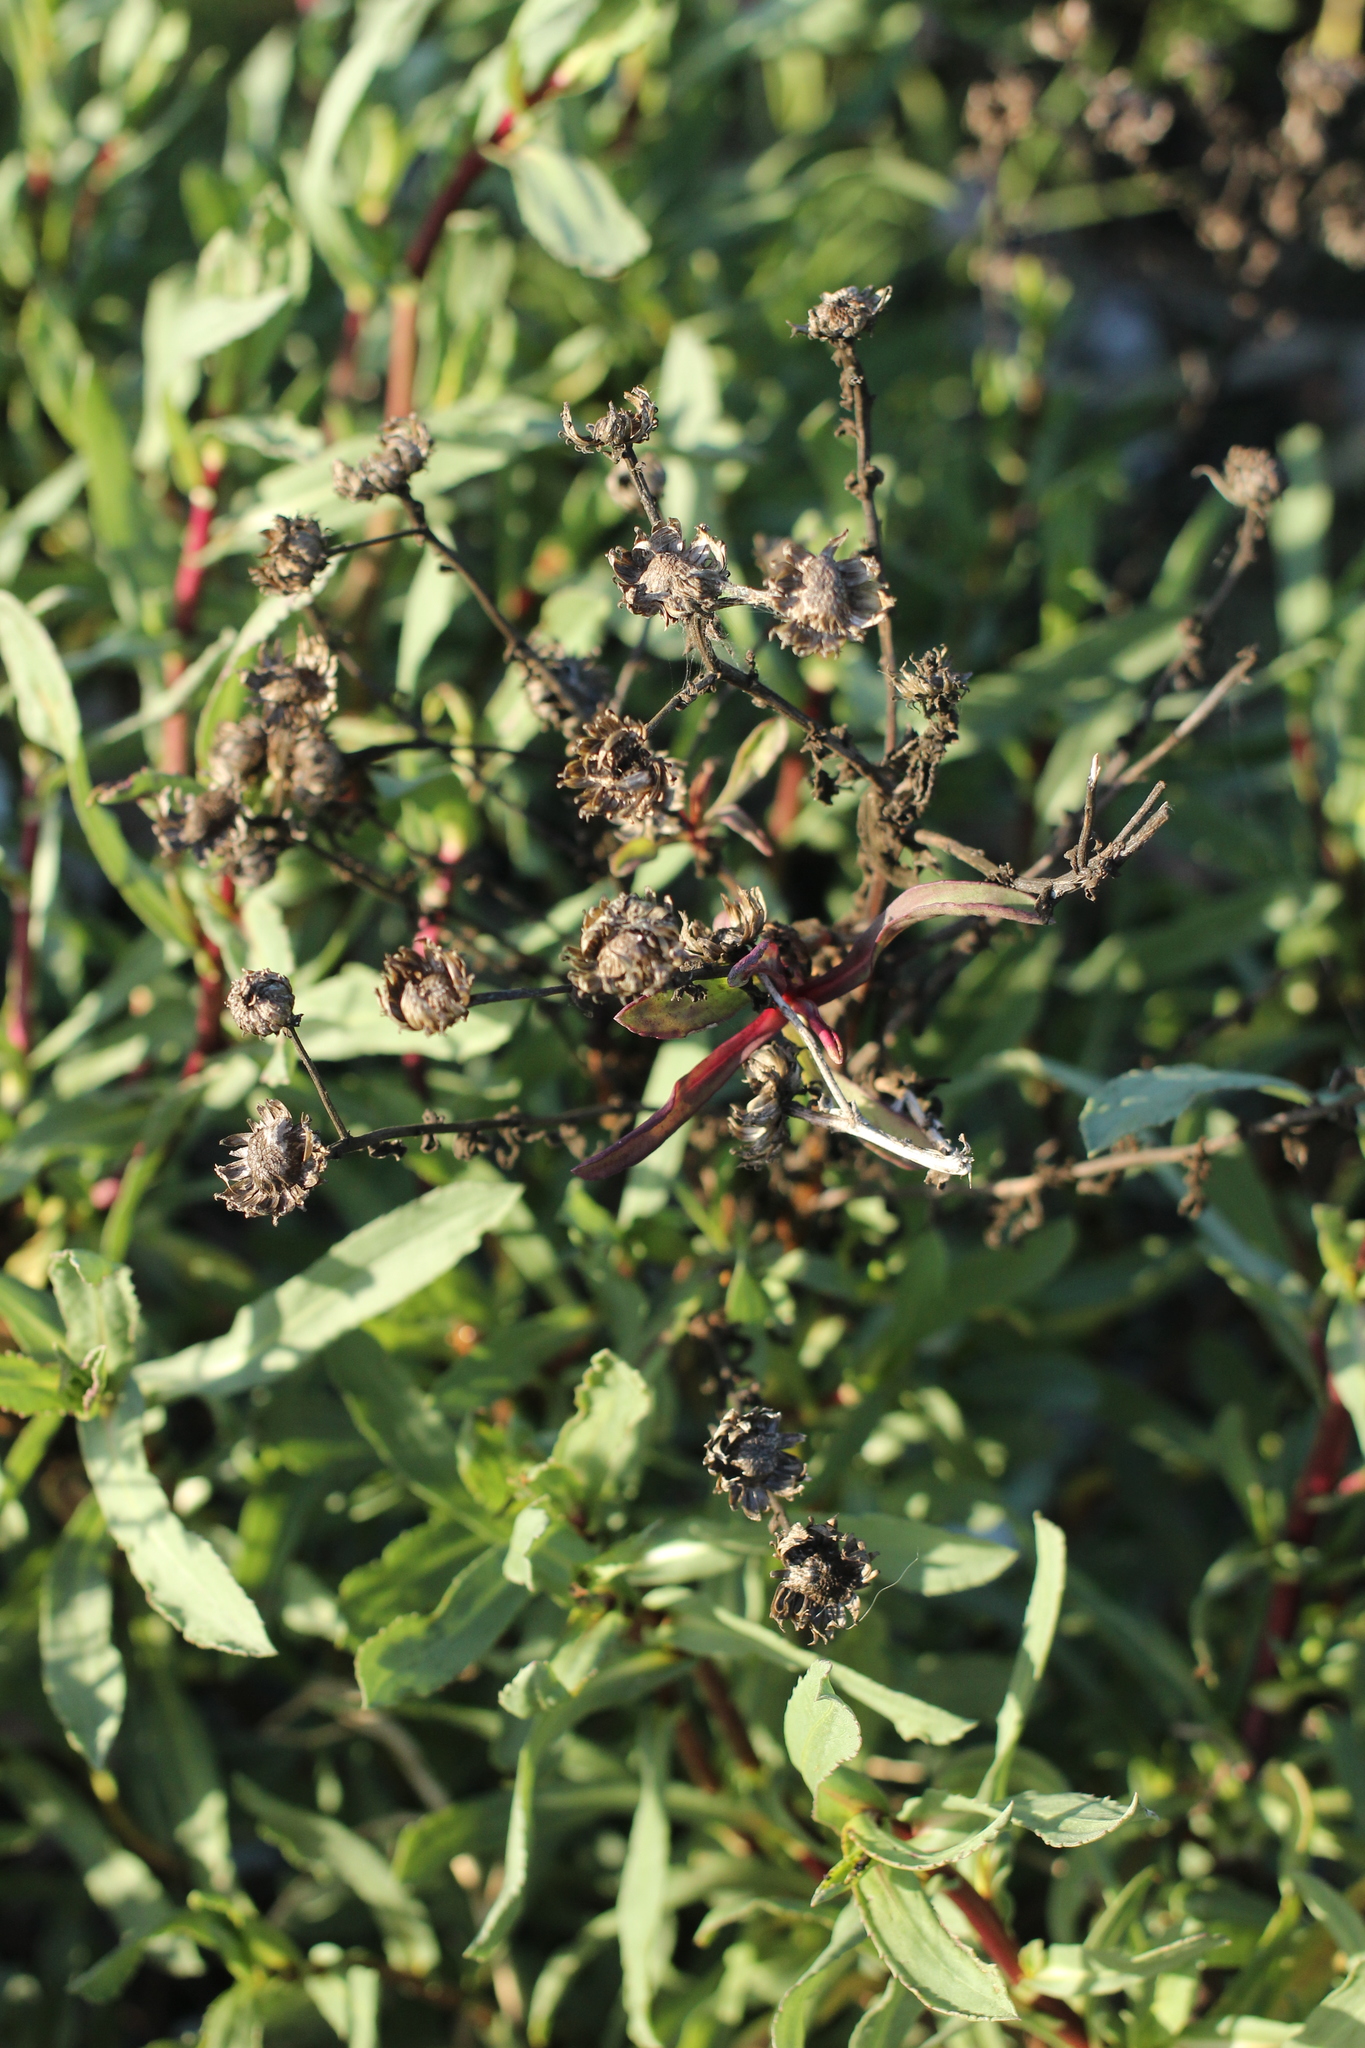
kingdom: Plantae
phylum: Tracheophyta
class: Magnoliopsida
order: Asterales
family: Asteraceae
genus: Grindelia
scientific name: Grindelia hirsutula
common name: Hairy gumweed
